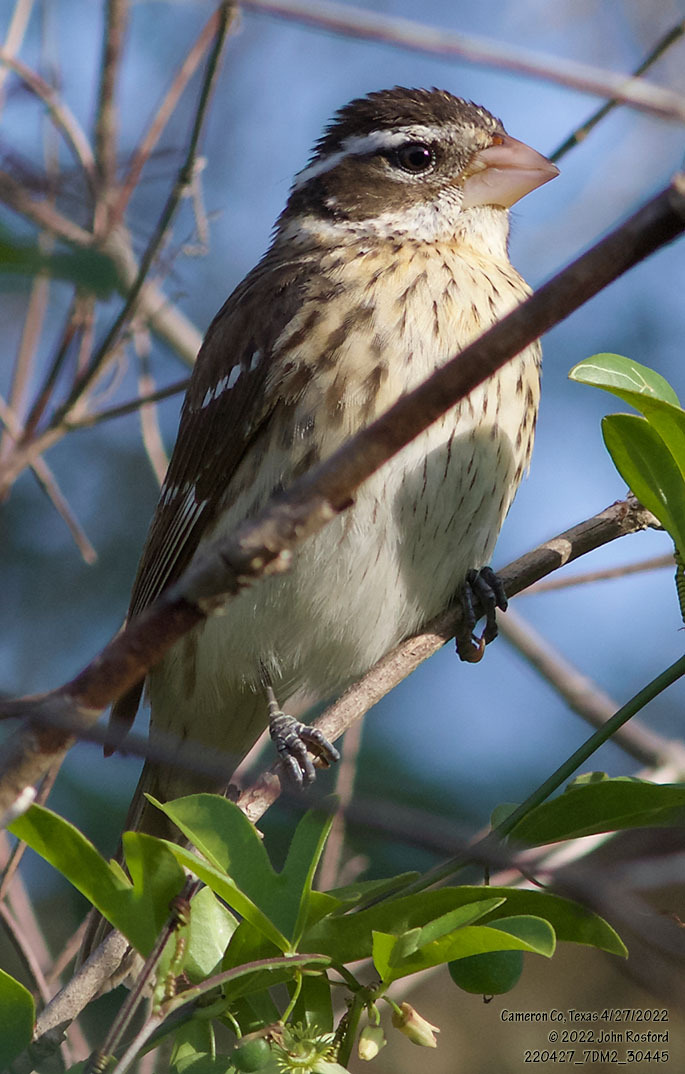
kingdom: Animalia
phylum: Chordata
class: Aves
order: Passeriformes
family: Cardinalidae
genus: Pheucticus
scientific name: Pheucticus ludovicianus
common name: Rose-breasted grosbeak
